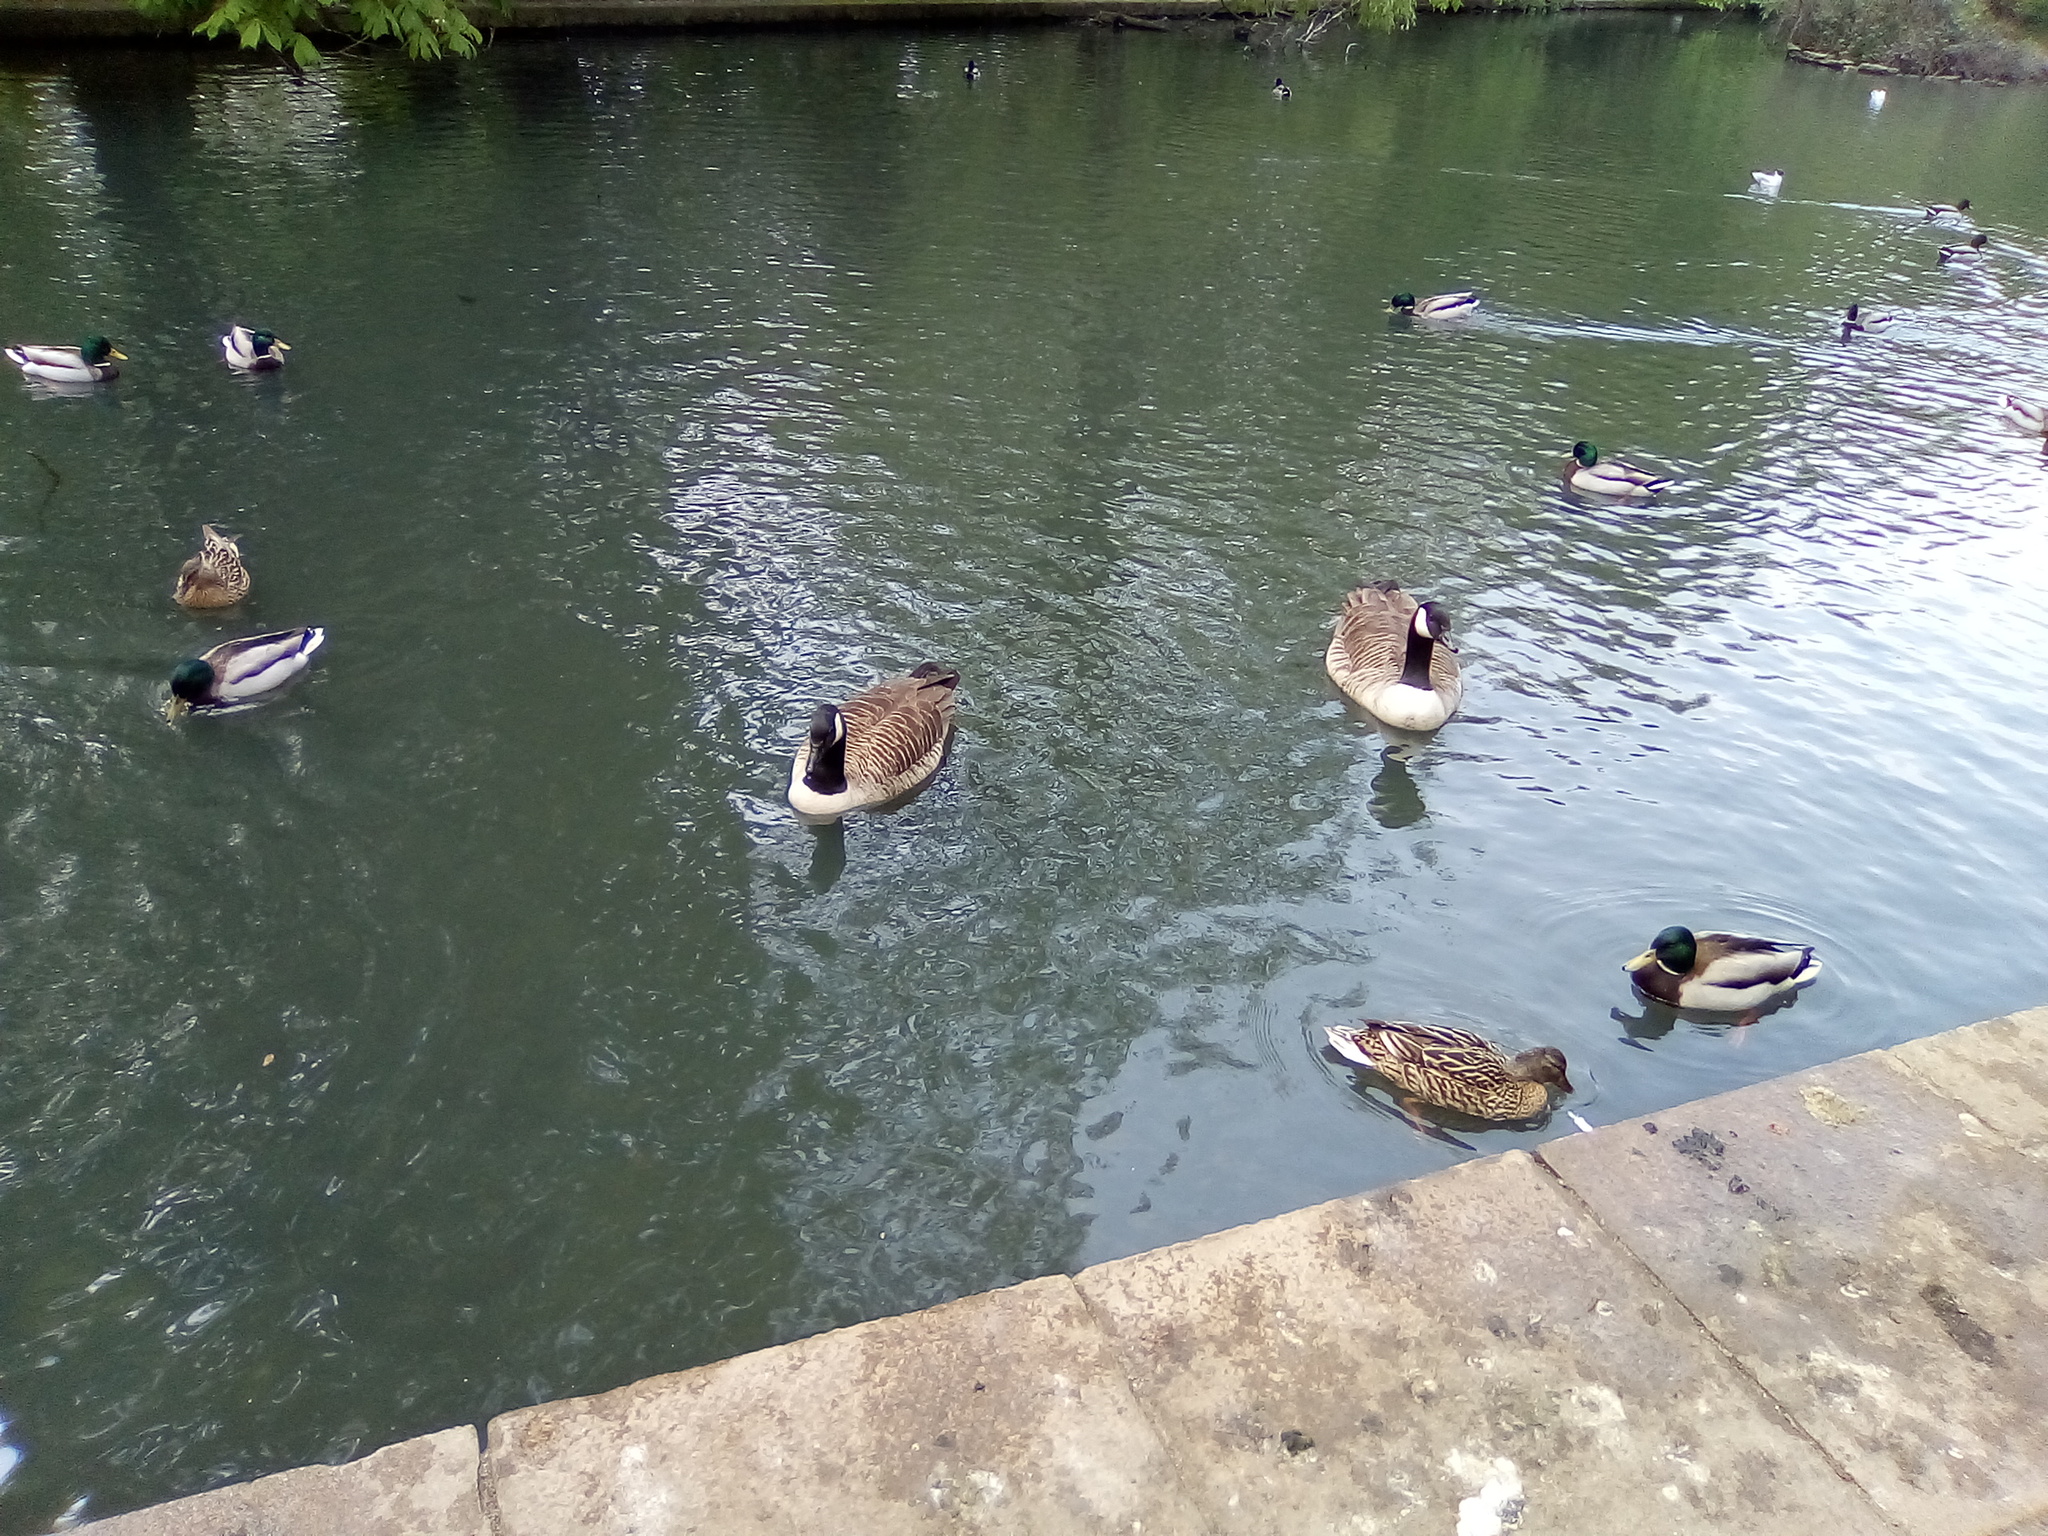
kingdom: Animalia
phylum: Chordata
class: Aves
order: Anseriformes
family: Anatidae
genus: Branta
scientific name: Branta canadensis
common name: Canada goose
